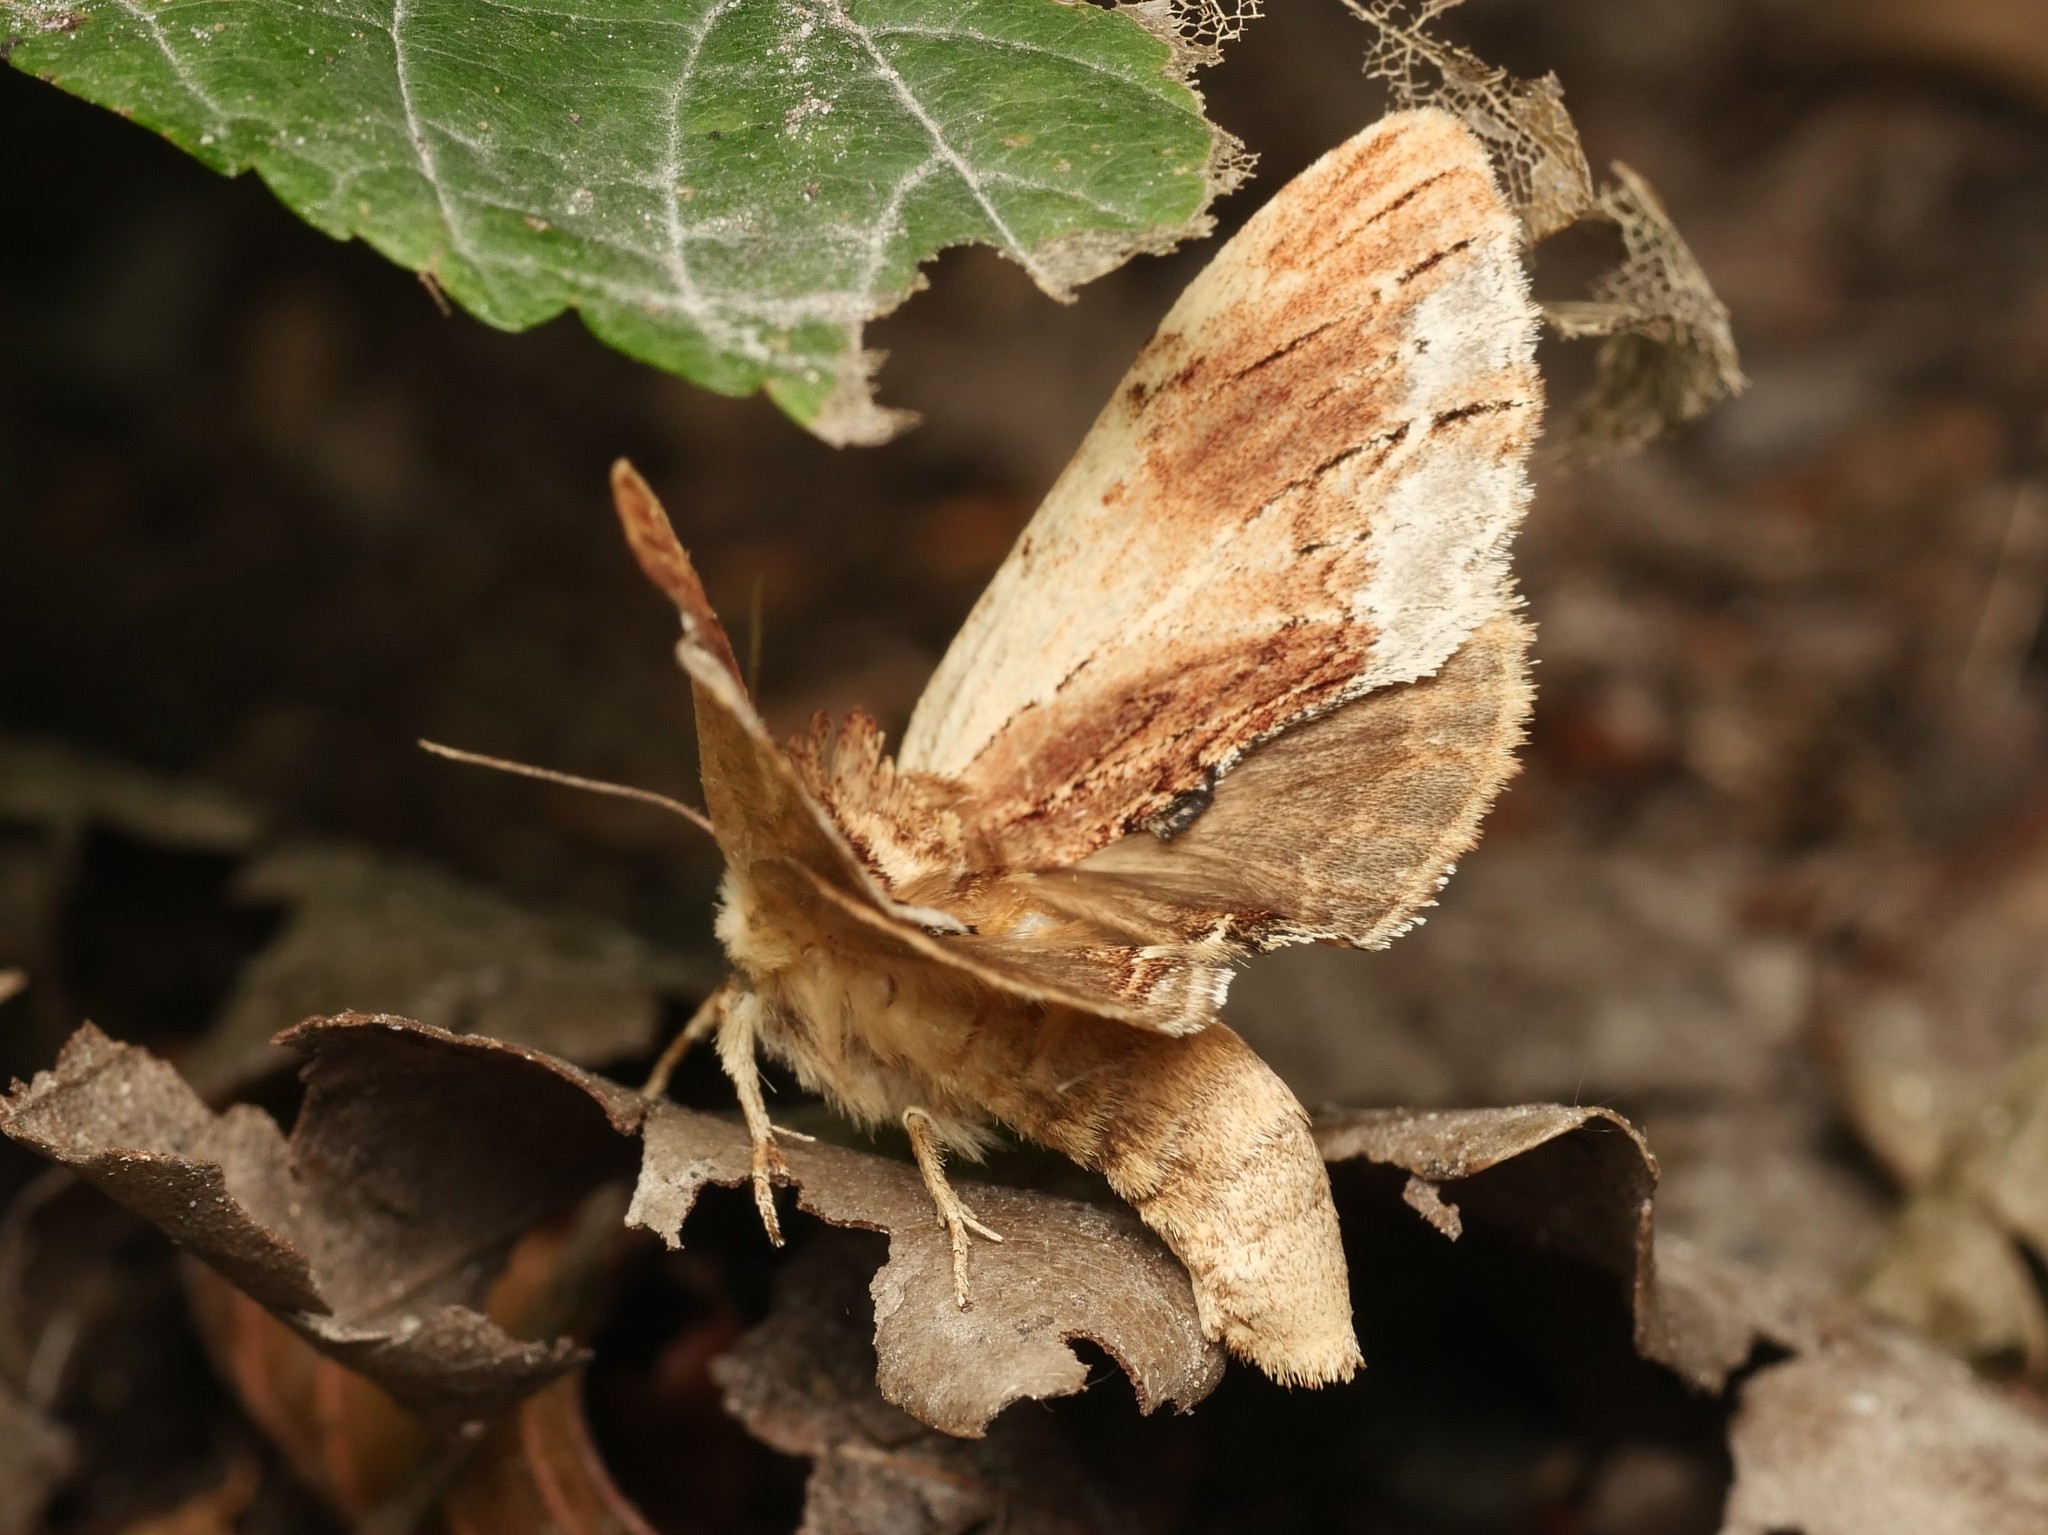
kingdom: Animalia
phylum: Arthropoda
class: Insecta
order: Lepidoptera
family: Notodontidae
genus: Ptilodon
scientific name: Ptilodon cucullina
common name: Maple prominent
